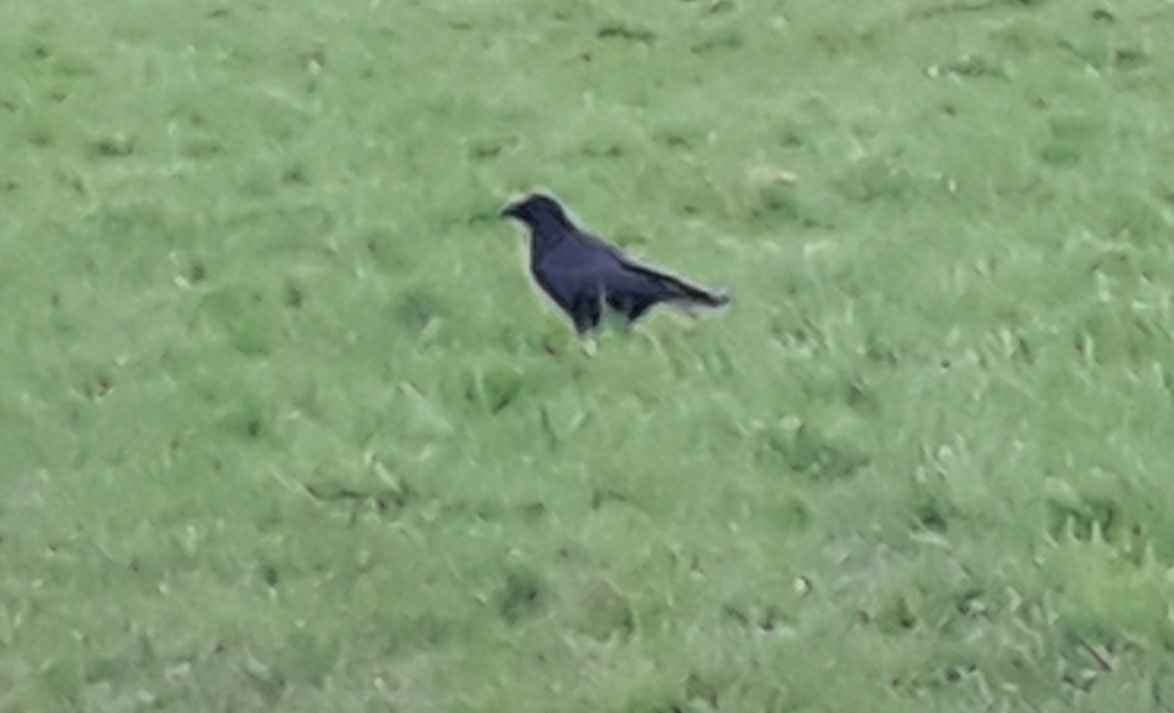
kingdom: Animalia
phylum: Chordata
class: Aves
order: Passeriformes
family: Corvidae
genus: Corvus
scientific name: Corvus corone
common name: Carrion crow
